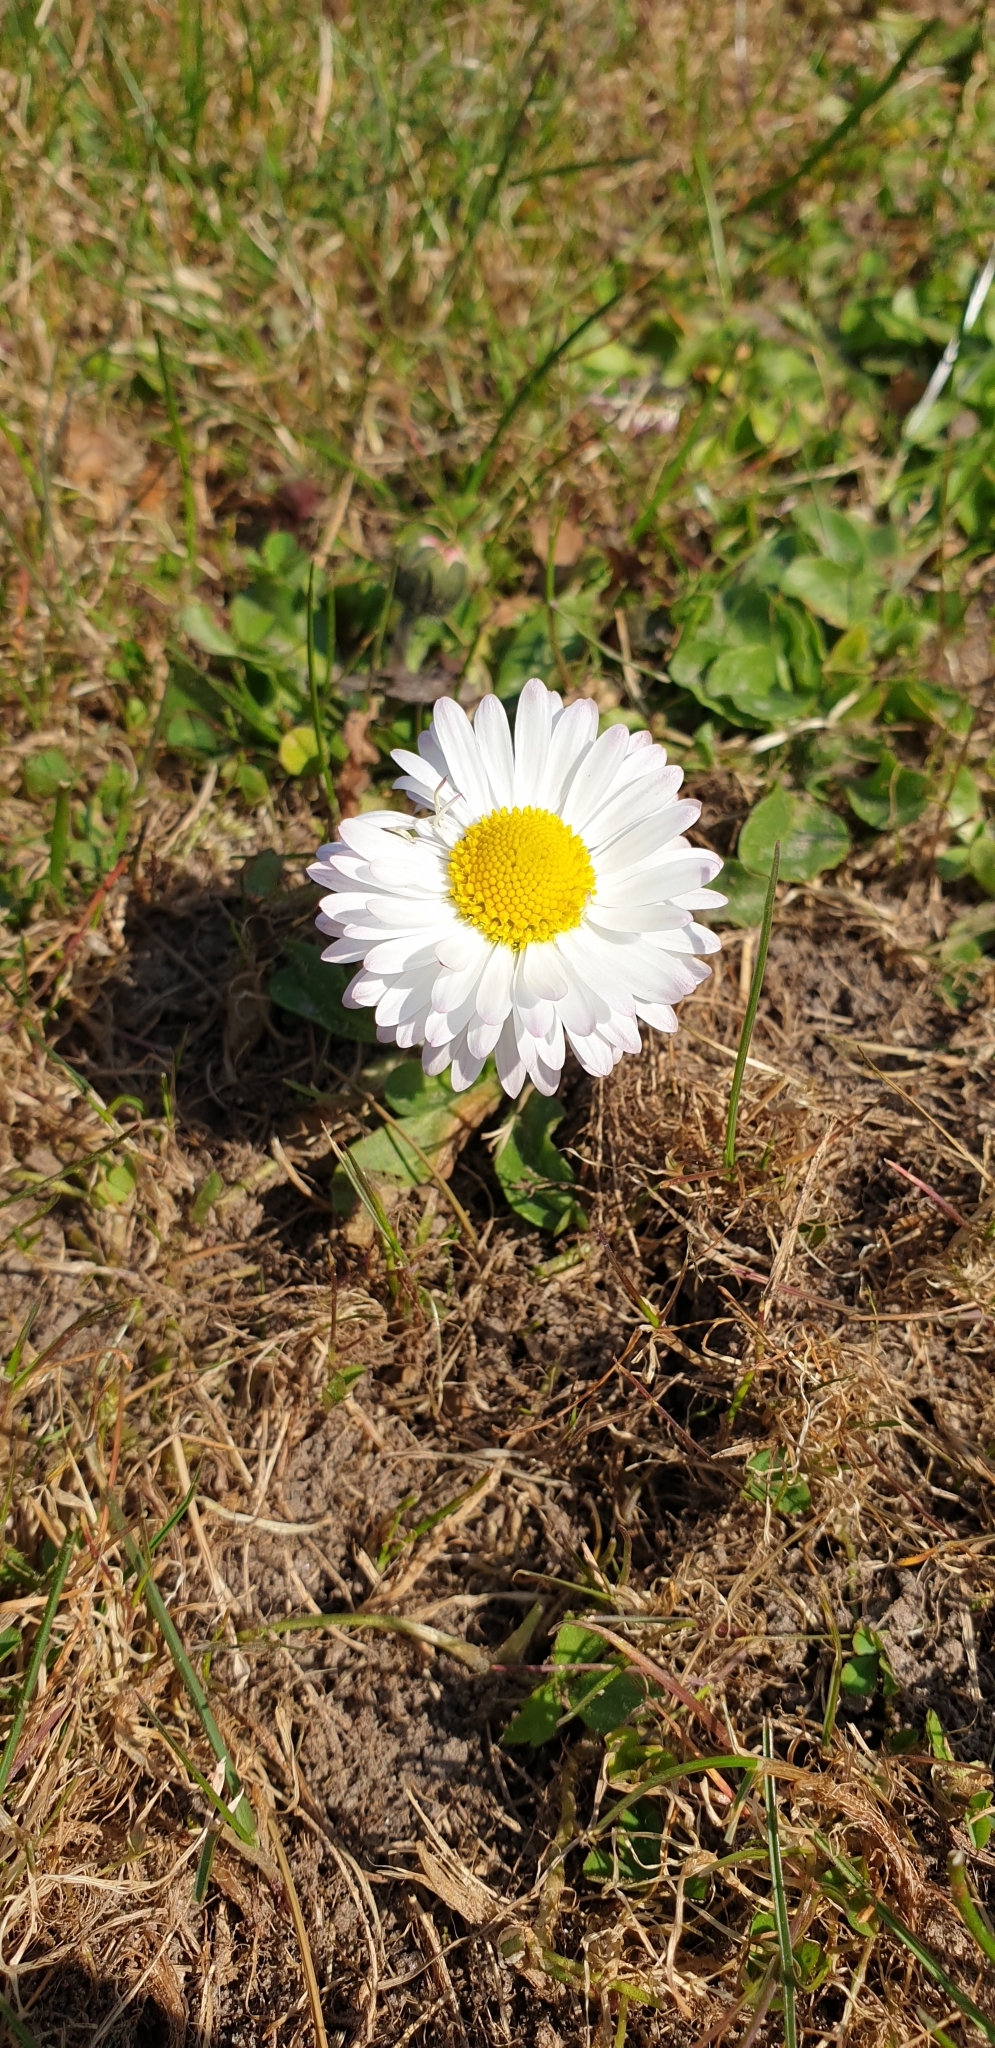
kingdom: Plantae
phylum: Tracheophyta
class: Magnoliopsida
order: Asterales
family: Asteraceae
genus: Bellis
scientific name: Bellis perennis
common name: Lawndaisy
